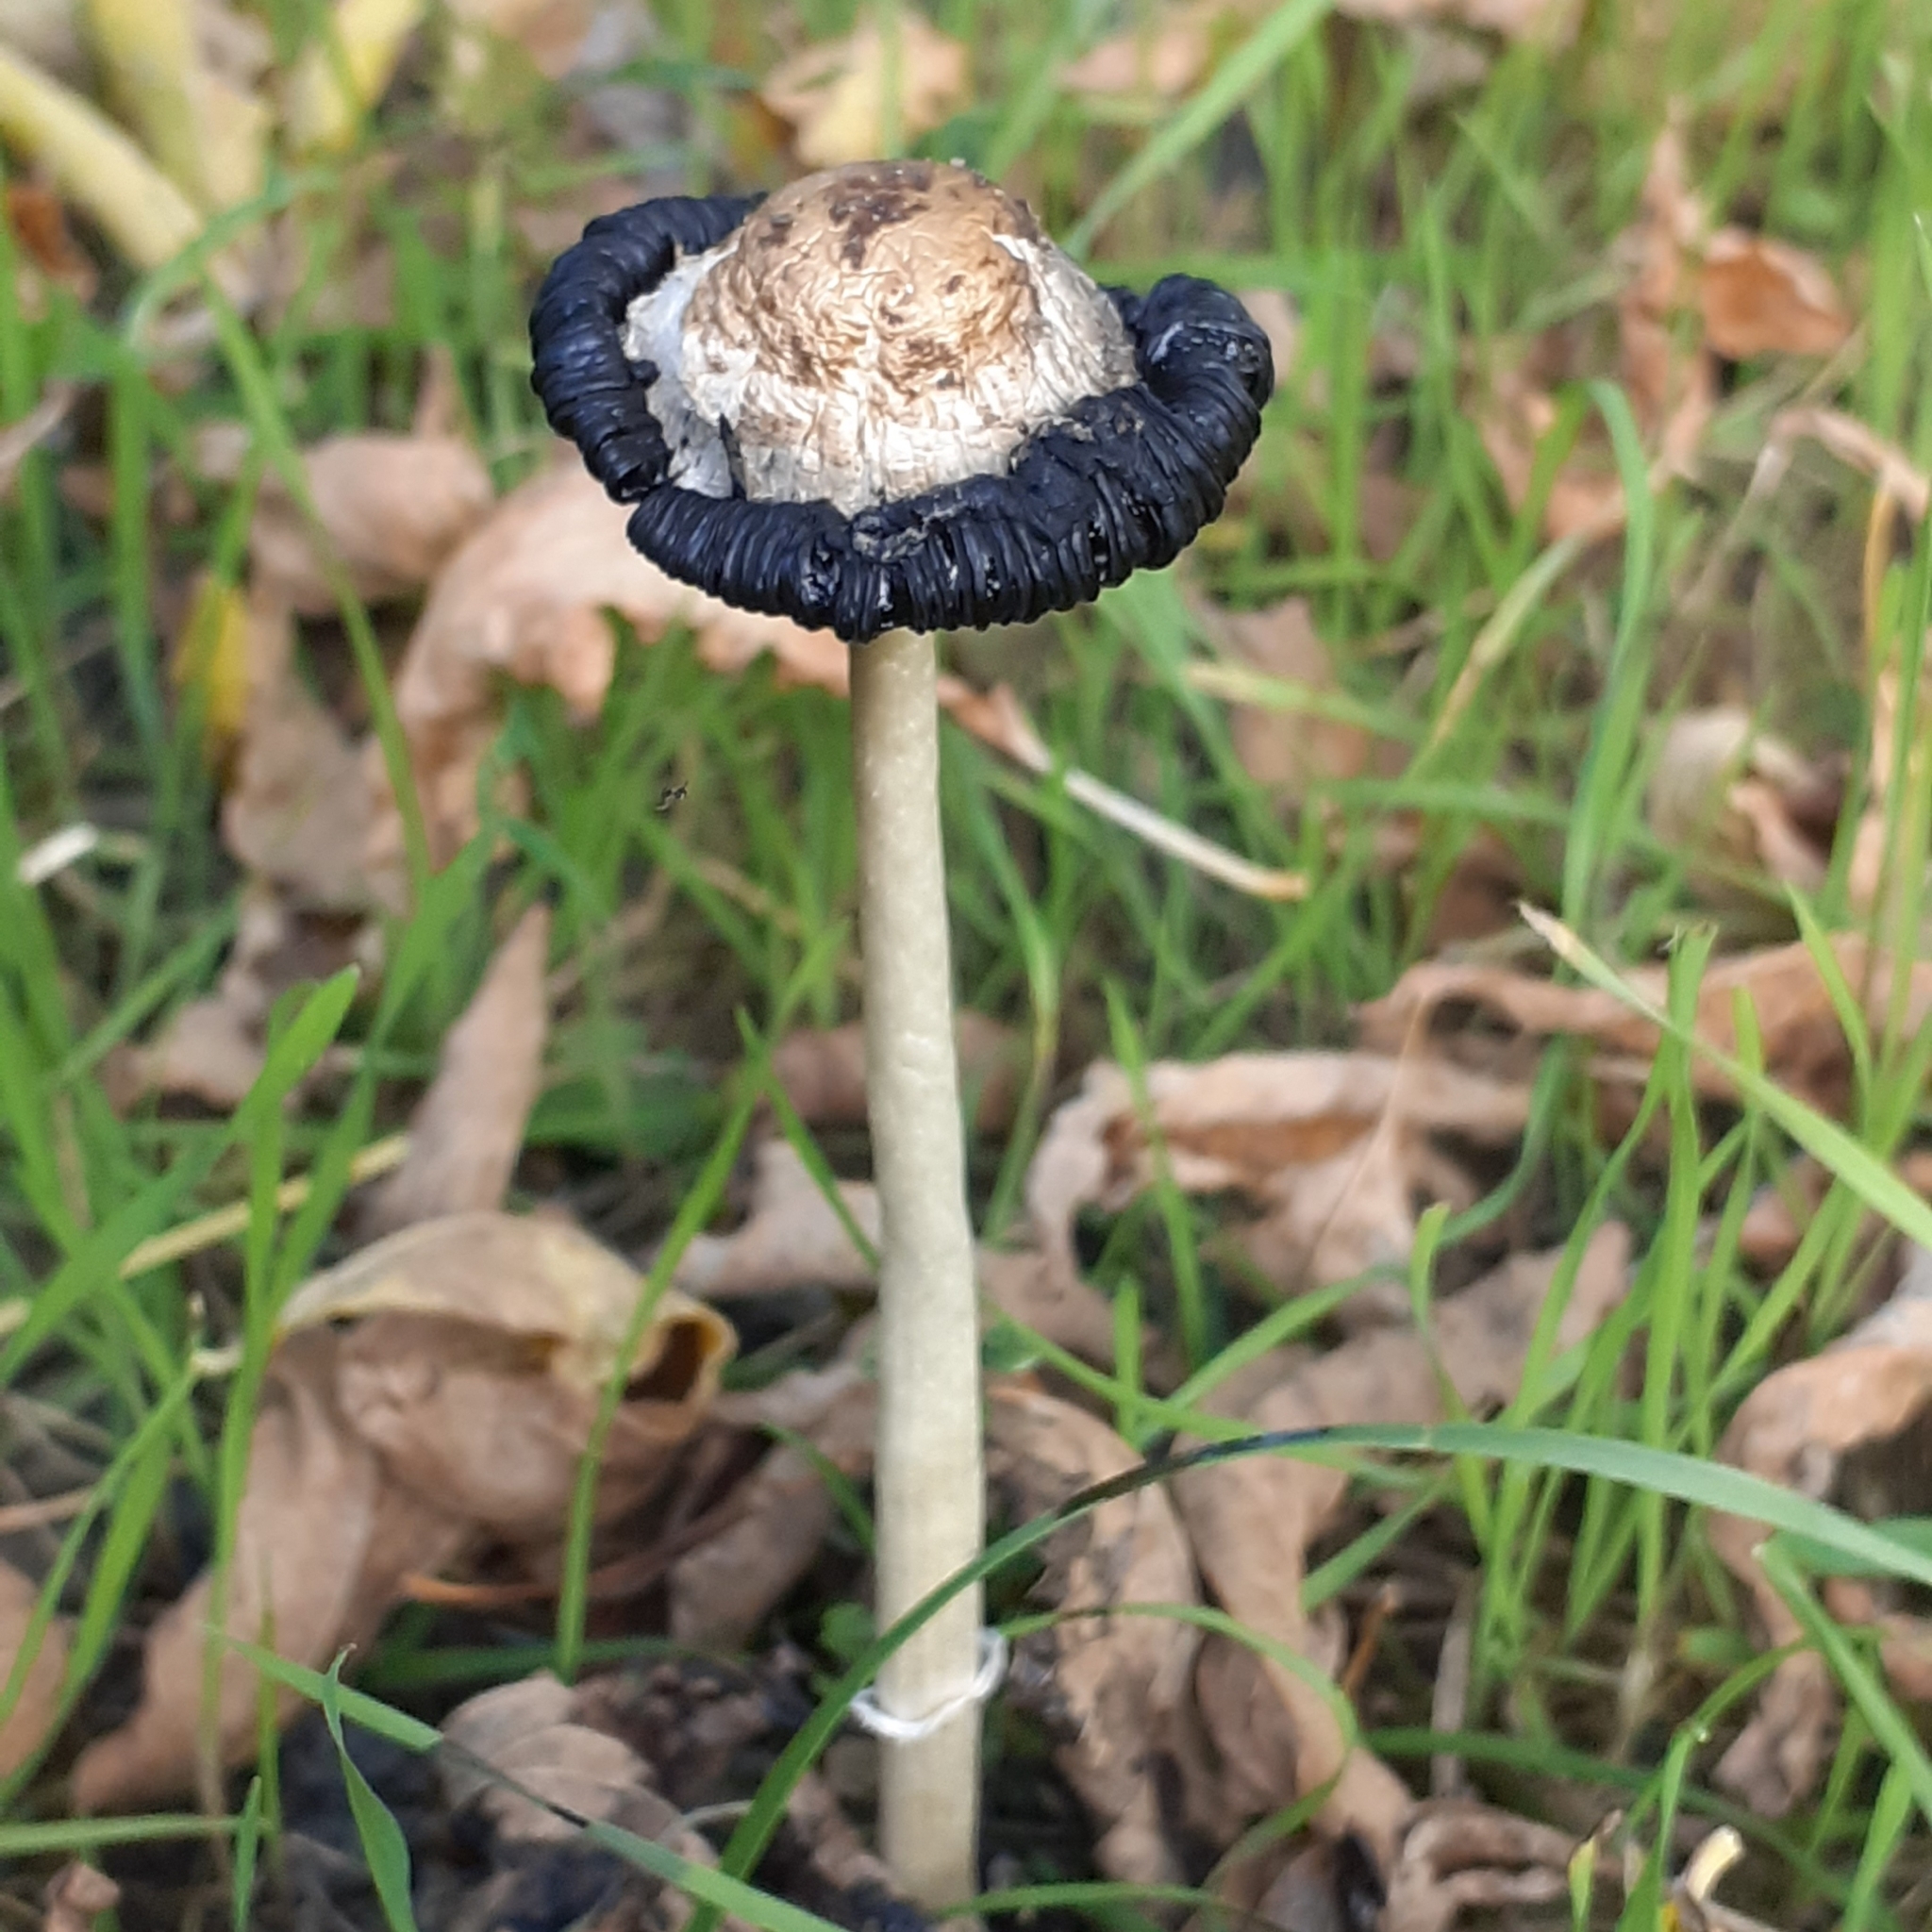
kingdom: Fungi
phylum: Basidiomycota
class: Agaricomycetes
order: Agaricales
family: Agaricaceae
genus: Coprinus
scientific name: Coprinus comatus
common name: Lawyer's wig
